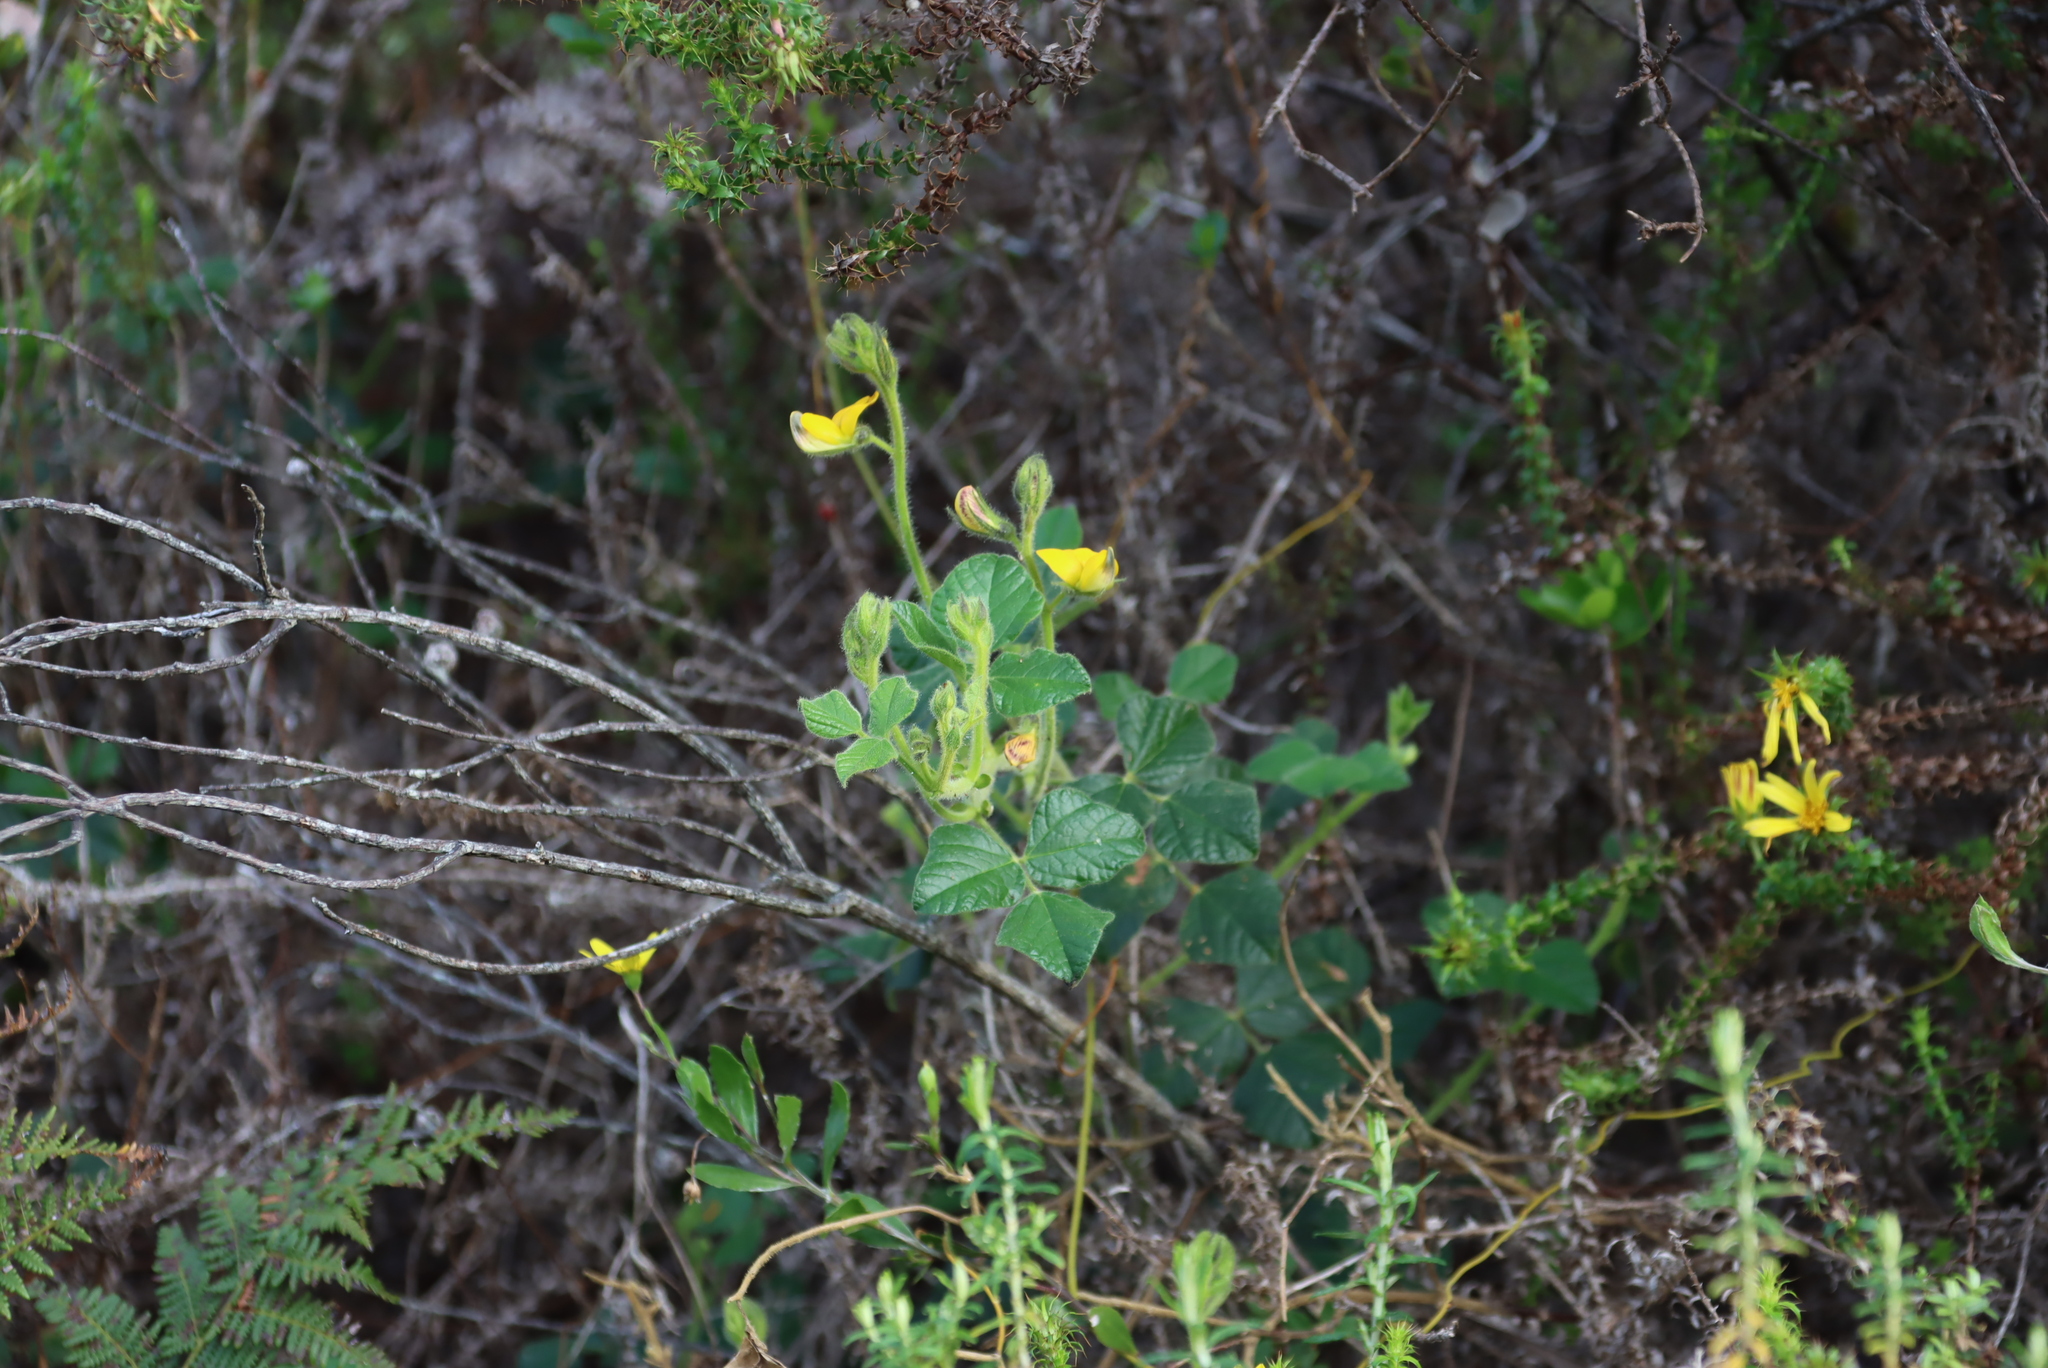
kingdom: Plantae
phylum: Tracheophyta
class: Magnoliopsida
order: Fabales
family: Fabaceae
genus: Bolusafra
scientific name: Bolusafra bituminosa
